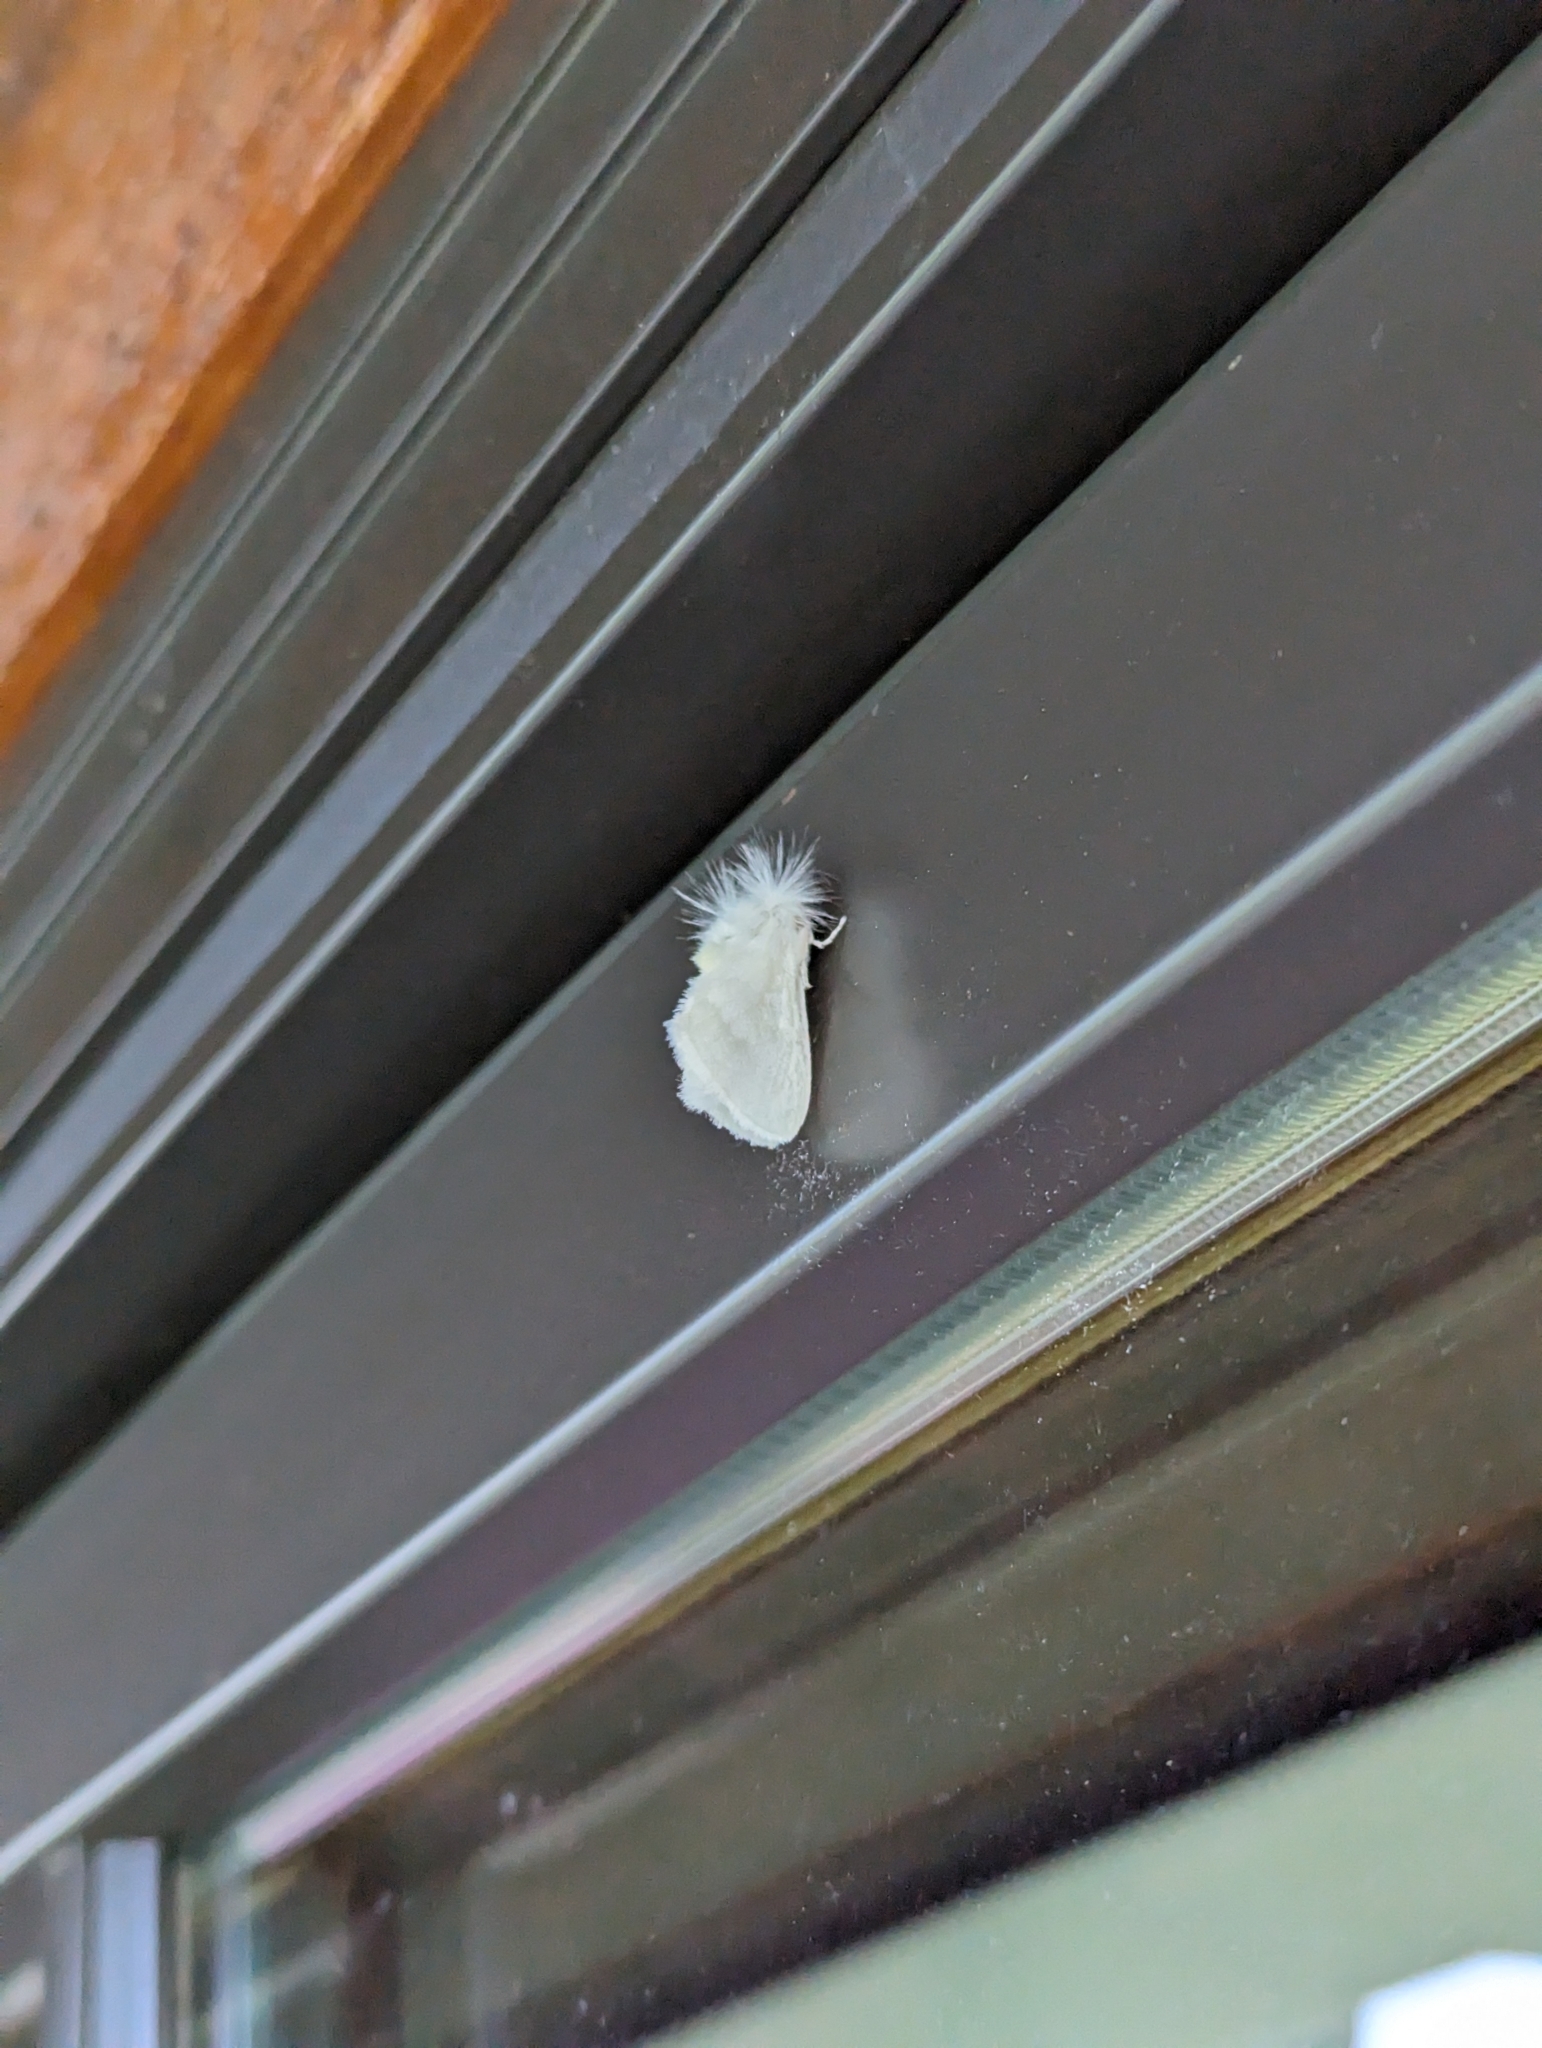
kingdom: Animalia
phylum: Arthropoda
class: Insecta
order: Lepidoptera
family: Megalopygidae
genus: Norape
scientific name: Norape cretata
